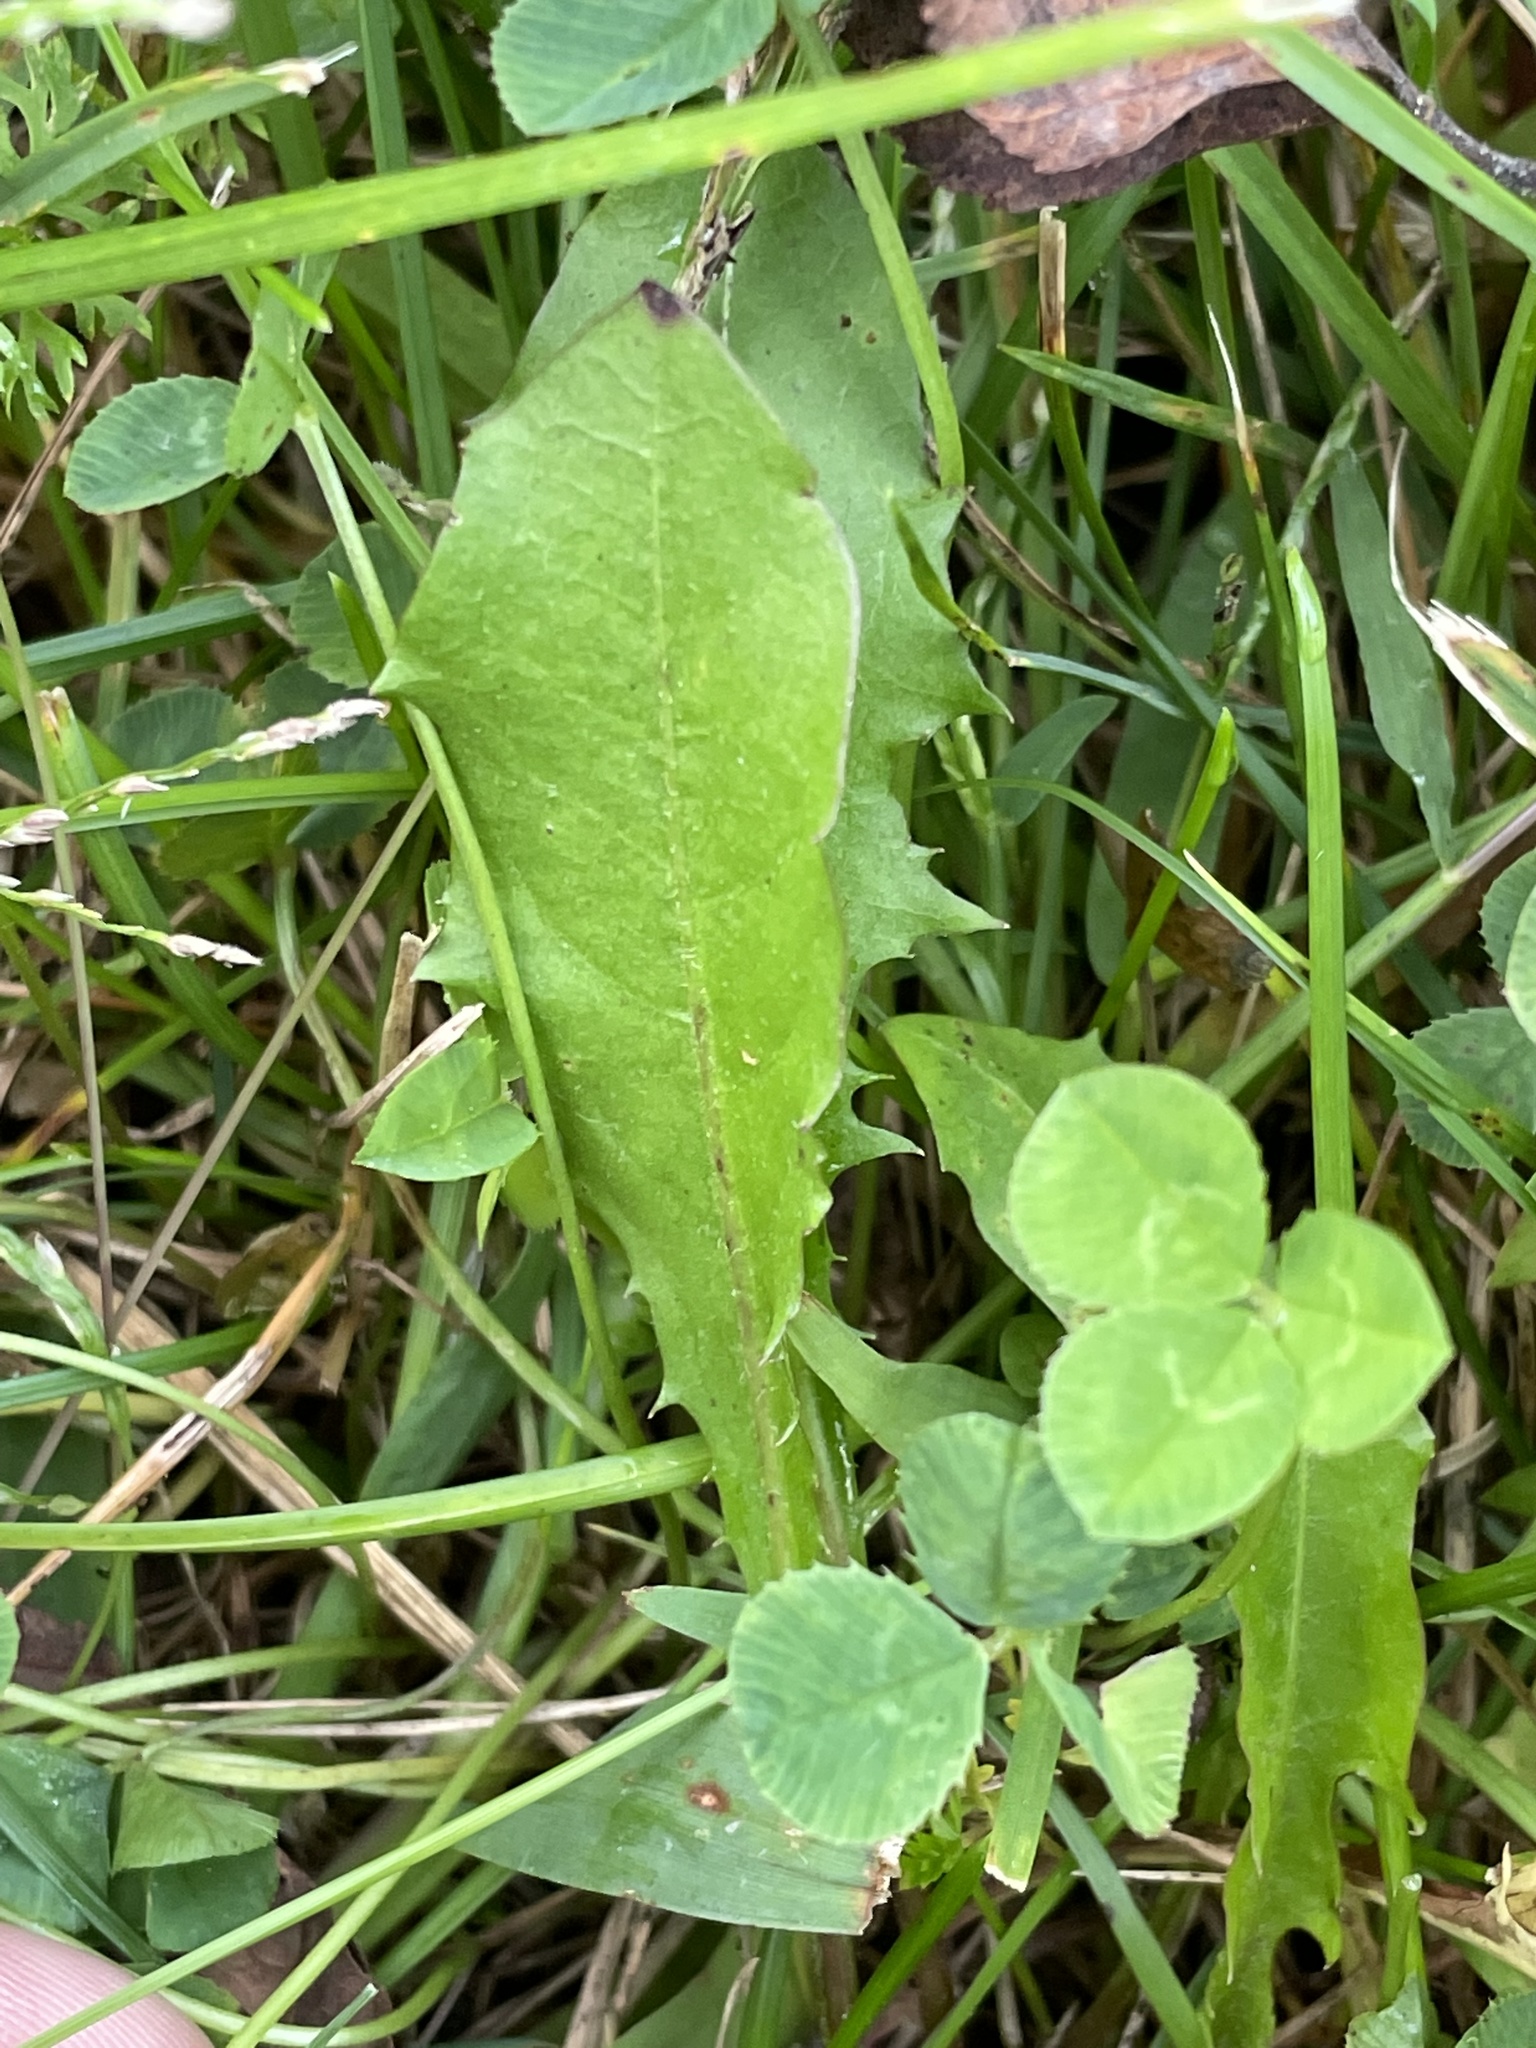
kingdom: Plantae
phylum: Tracheophyta
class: Magnoliopsida
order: Asterales
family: Asteraceae
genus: Taraxacum
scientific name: Taraxacum officinale
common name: Common dandelion
